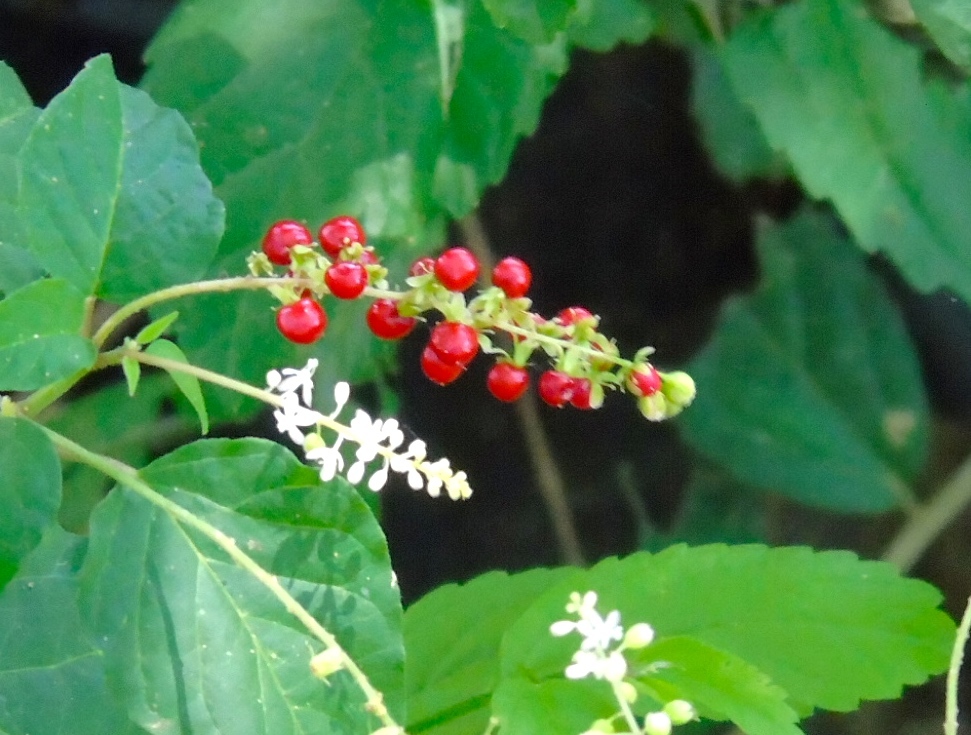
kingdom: Plantae
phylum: Tracheophyta
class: Magnoliopsida
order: Caryophyllales
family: Phytolaccaceae
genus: Rivina
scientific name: Rivina humilis
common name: Rougeplant
